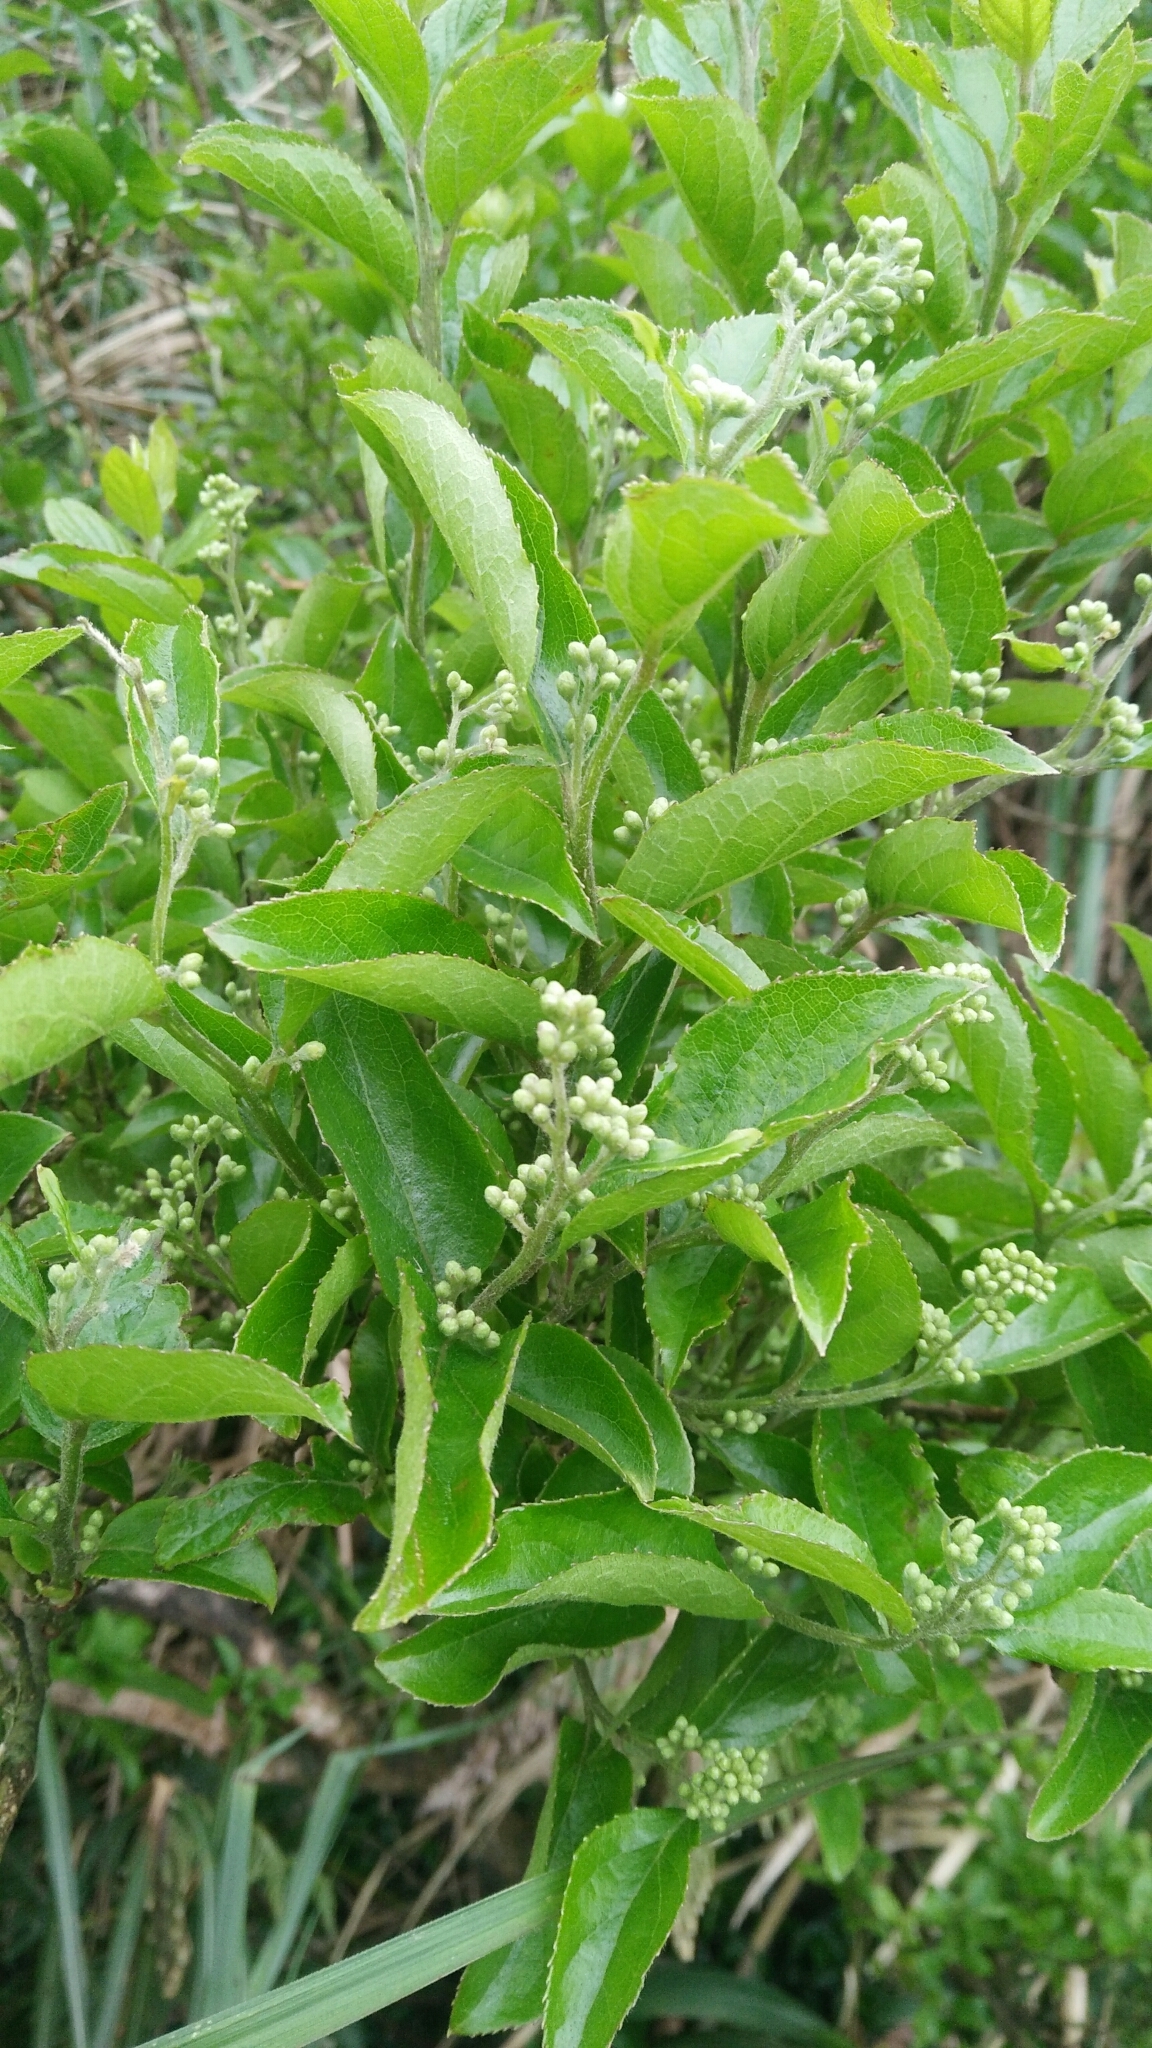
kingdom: Plantae
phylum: Tracheophyta
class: Magnoliopsida
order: Ericales
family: Symplocaceae
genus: Symplocos
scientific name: Symplocos paniculata
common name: Sapphire-berry
